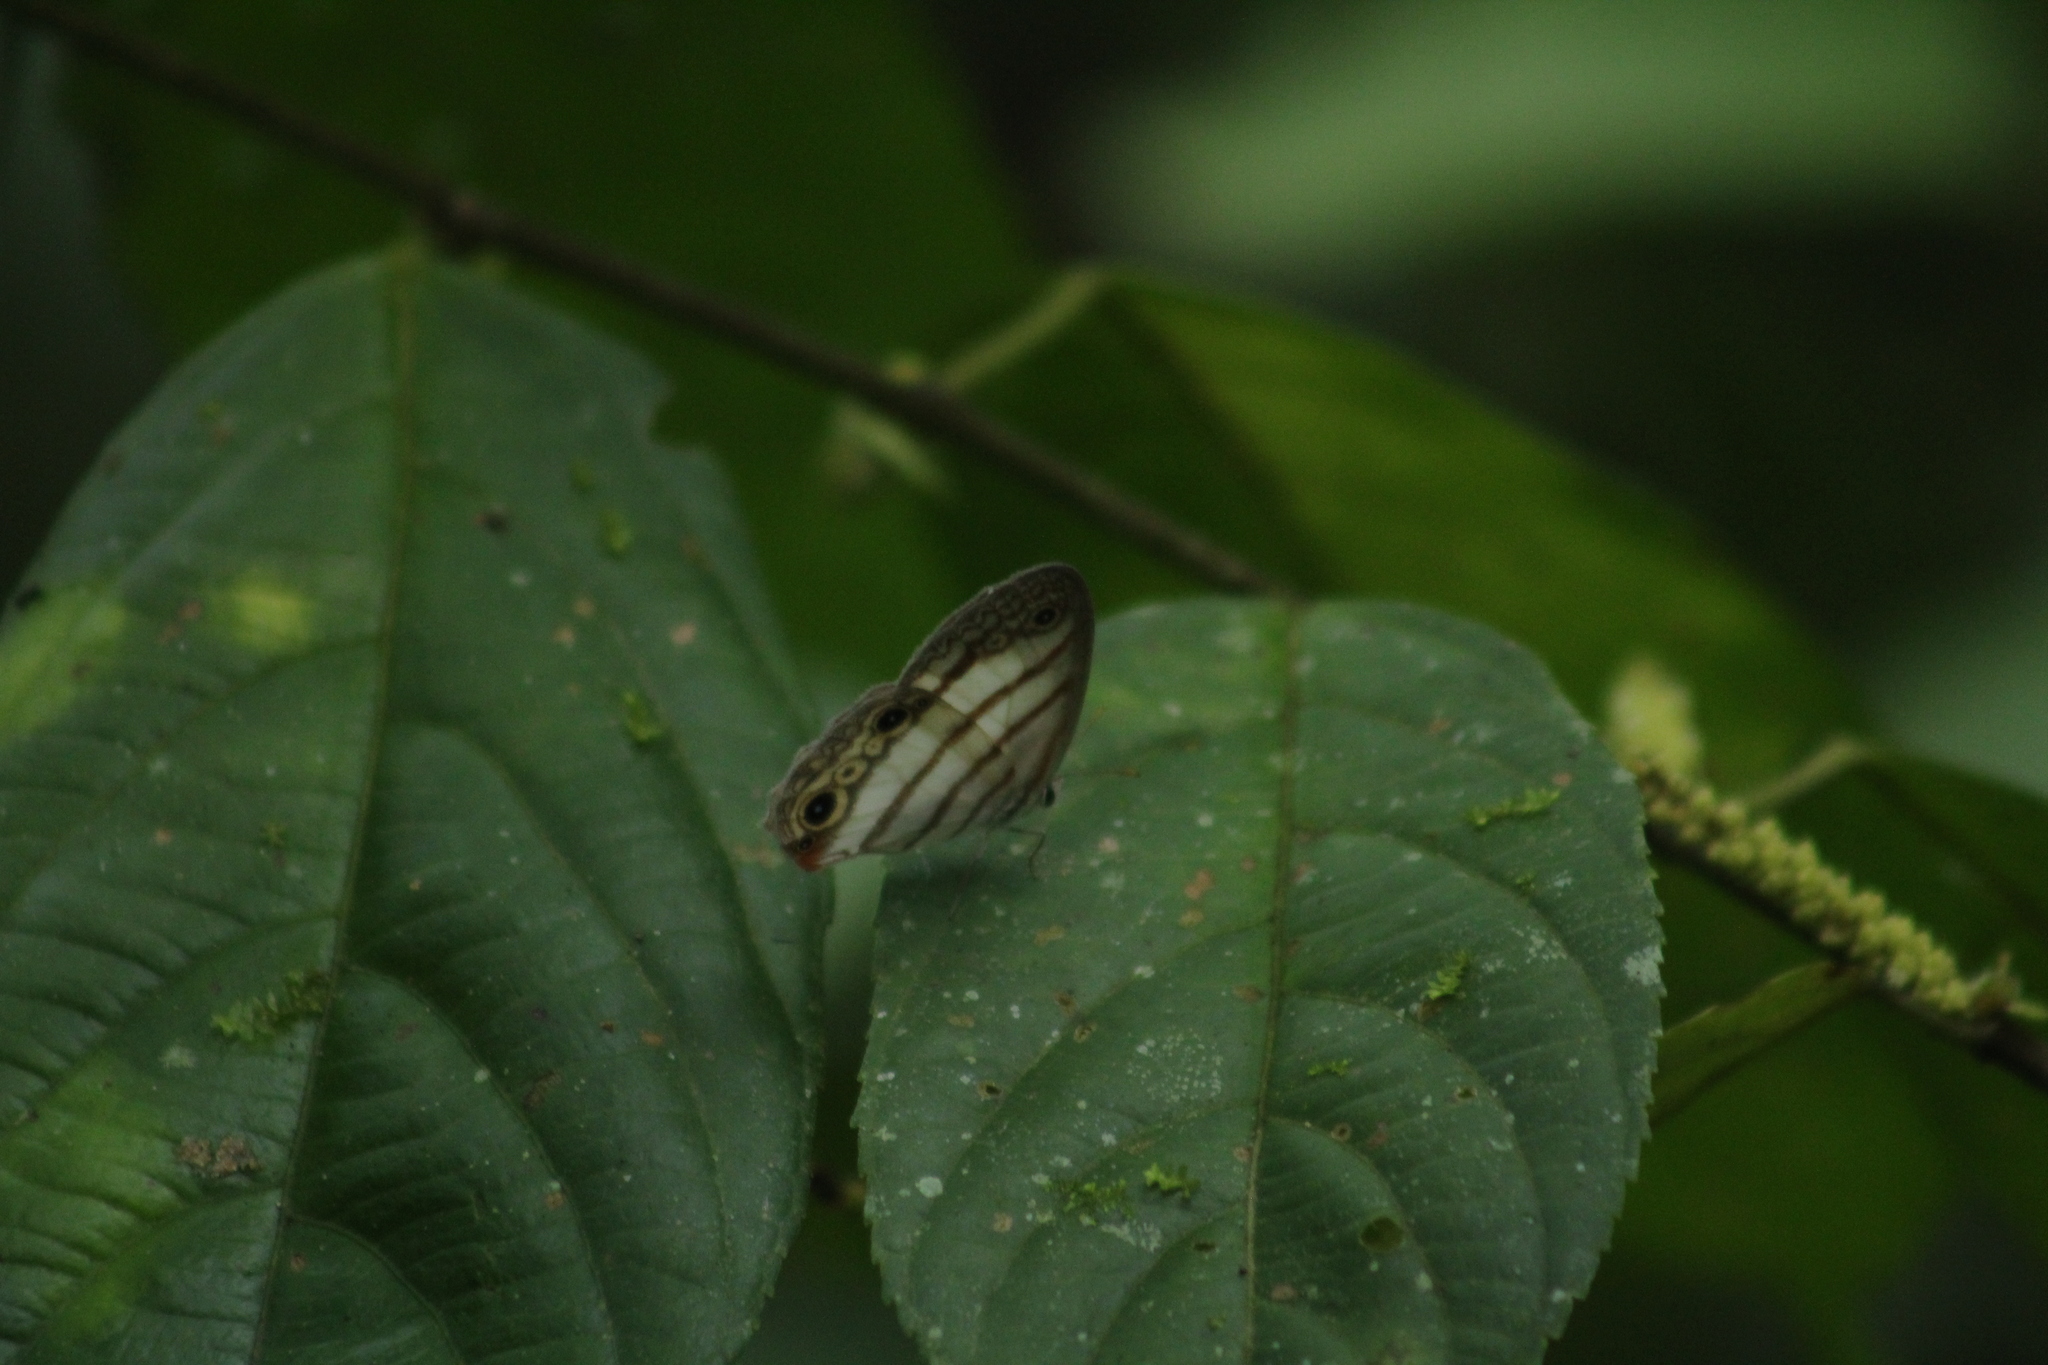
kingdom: Animalia
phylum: Arthropoda
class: Insecta
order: Lepidoptera
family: Nymphalidae
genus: Euptychia
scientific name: Euptychia
